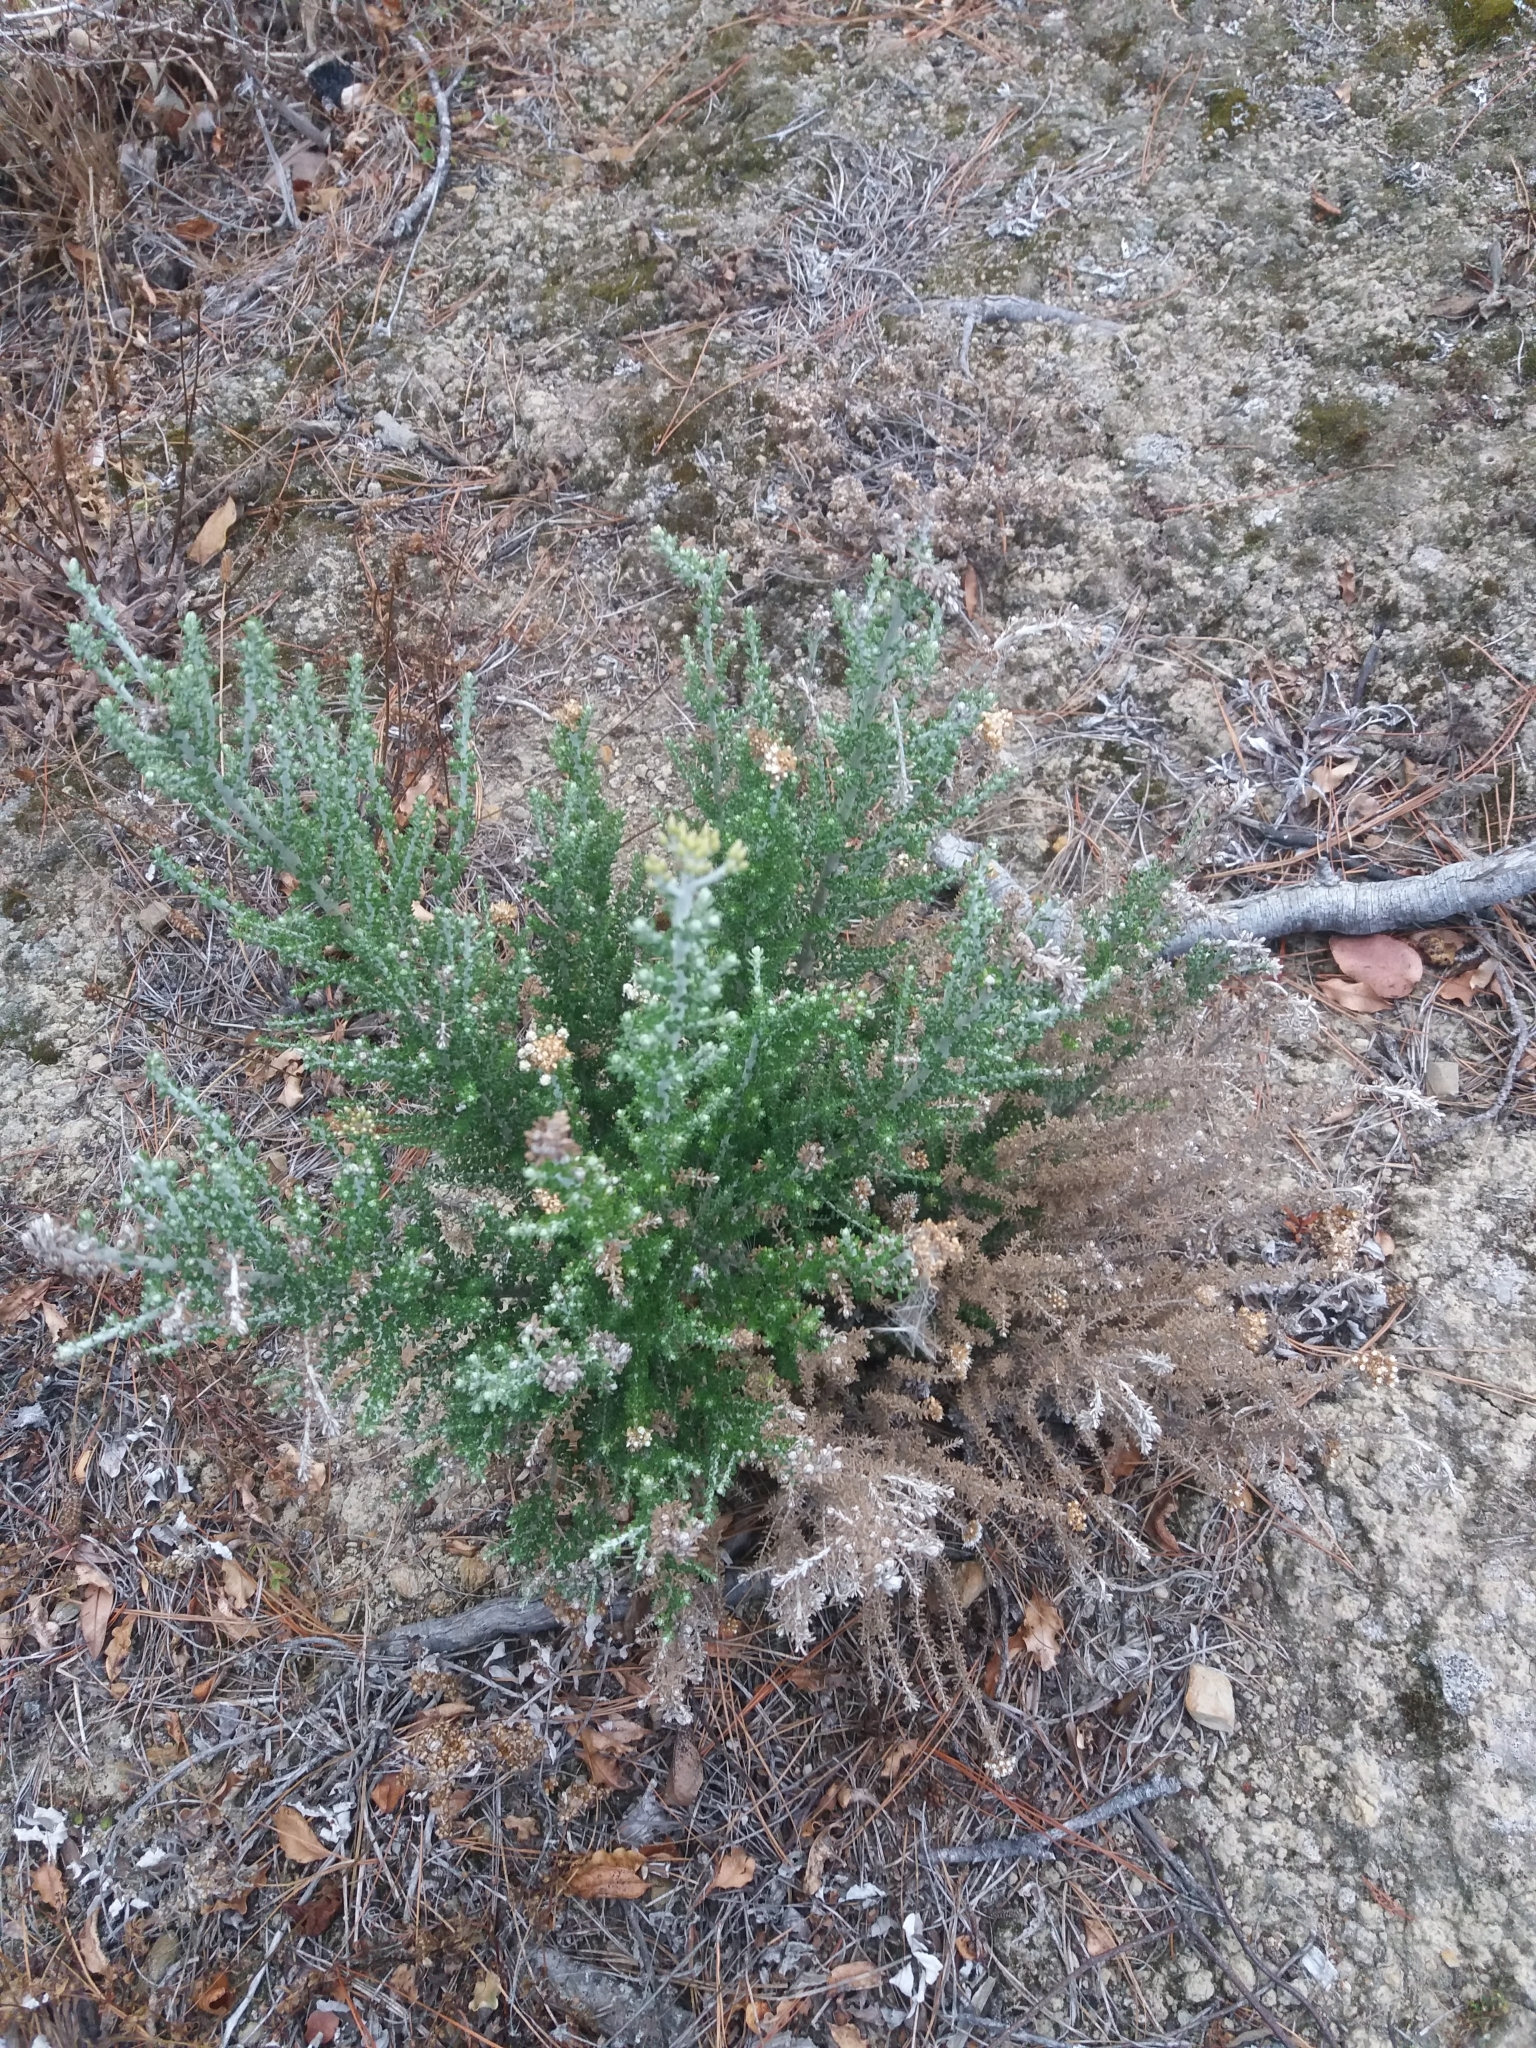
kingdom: Plantae
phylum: Tracheophyta
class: Magnoliopsida
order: Asterales
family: Asteraceae
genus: Ozothamnus
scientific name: Ozothamnus leptophyllus
